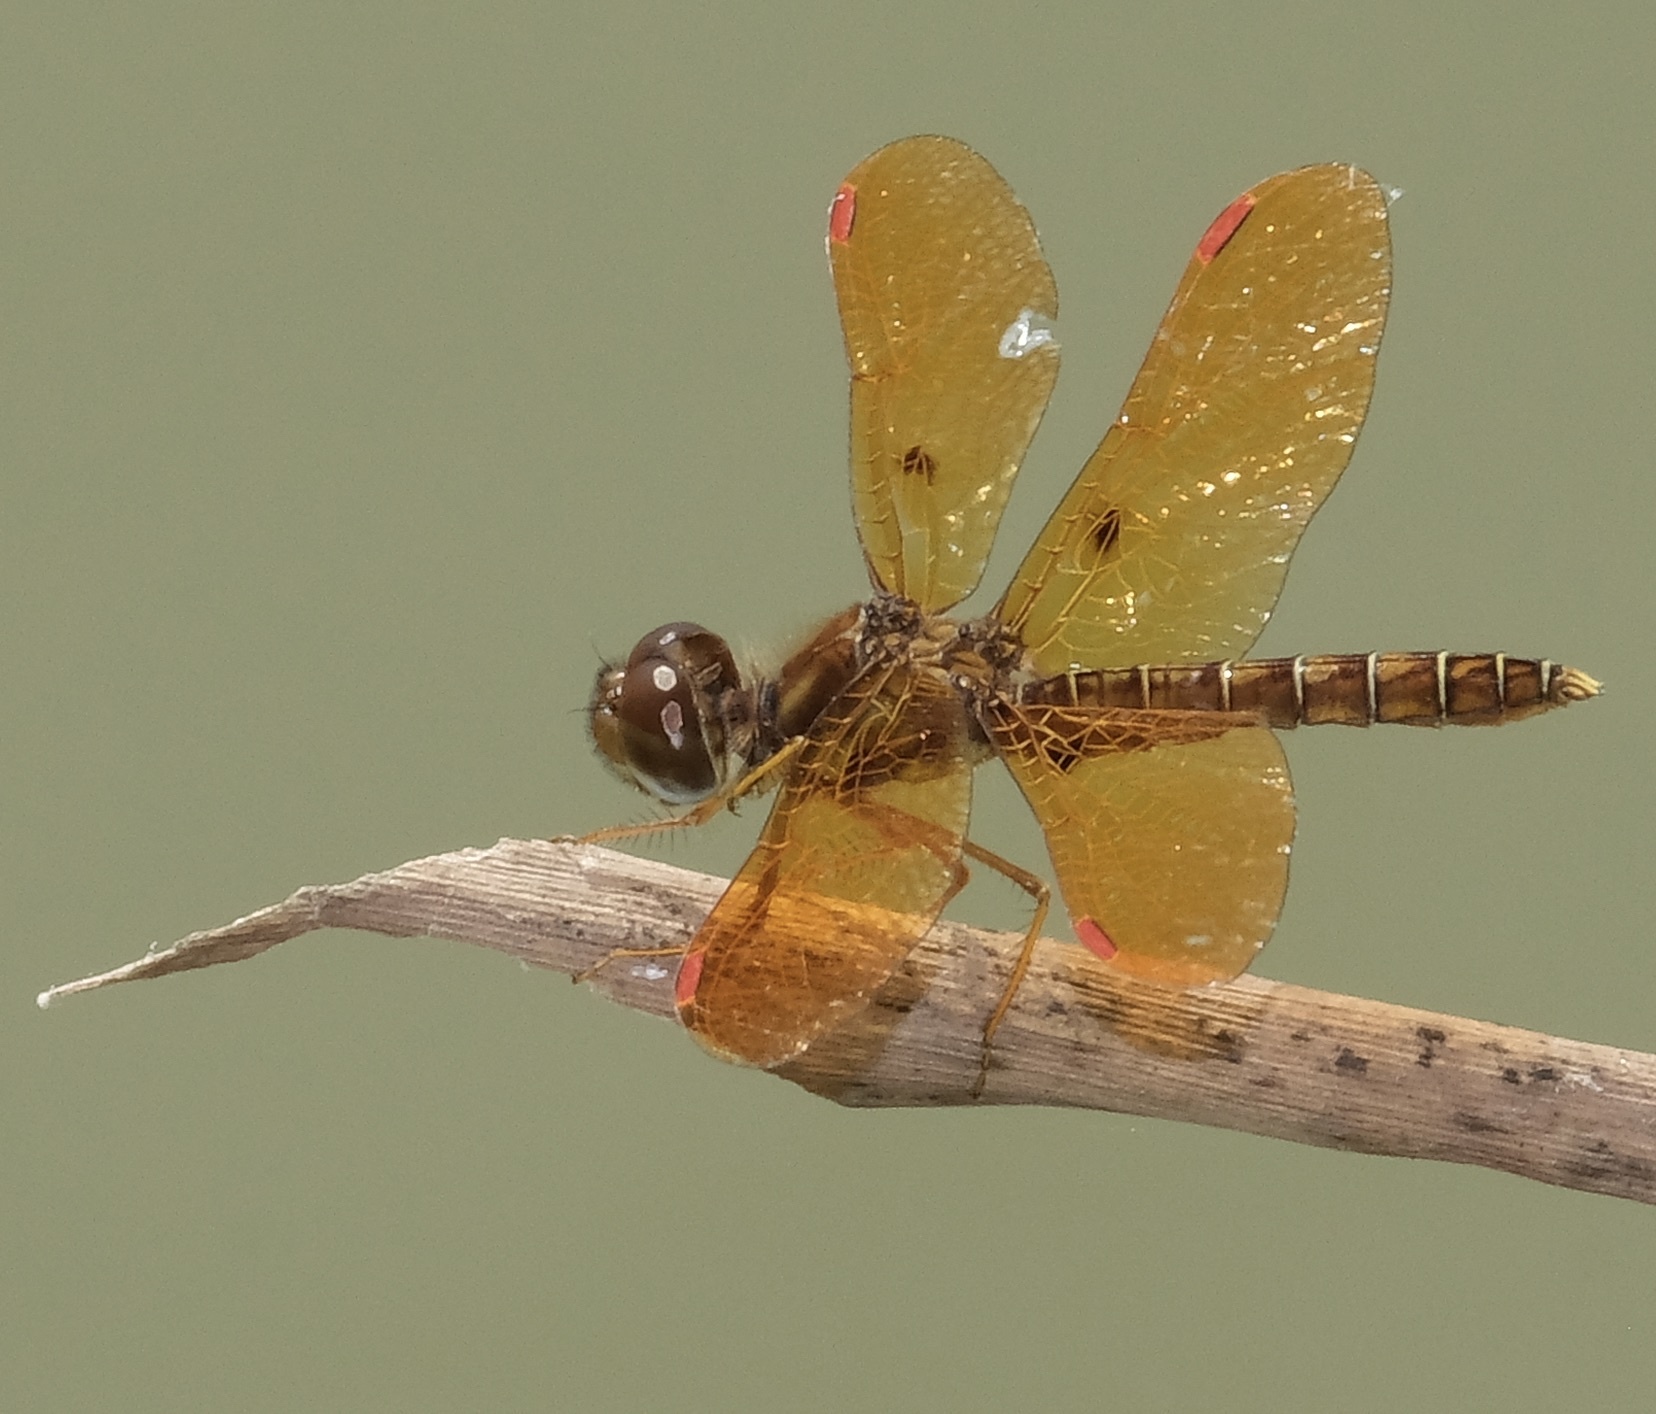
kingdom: Animalia
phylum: Arthropoda
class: Insecta
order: Odonata
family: Libellulidae
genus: Perithemis
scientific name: Perithemis tenera
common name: Eastern amberwing
